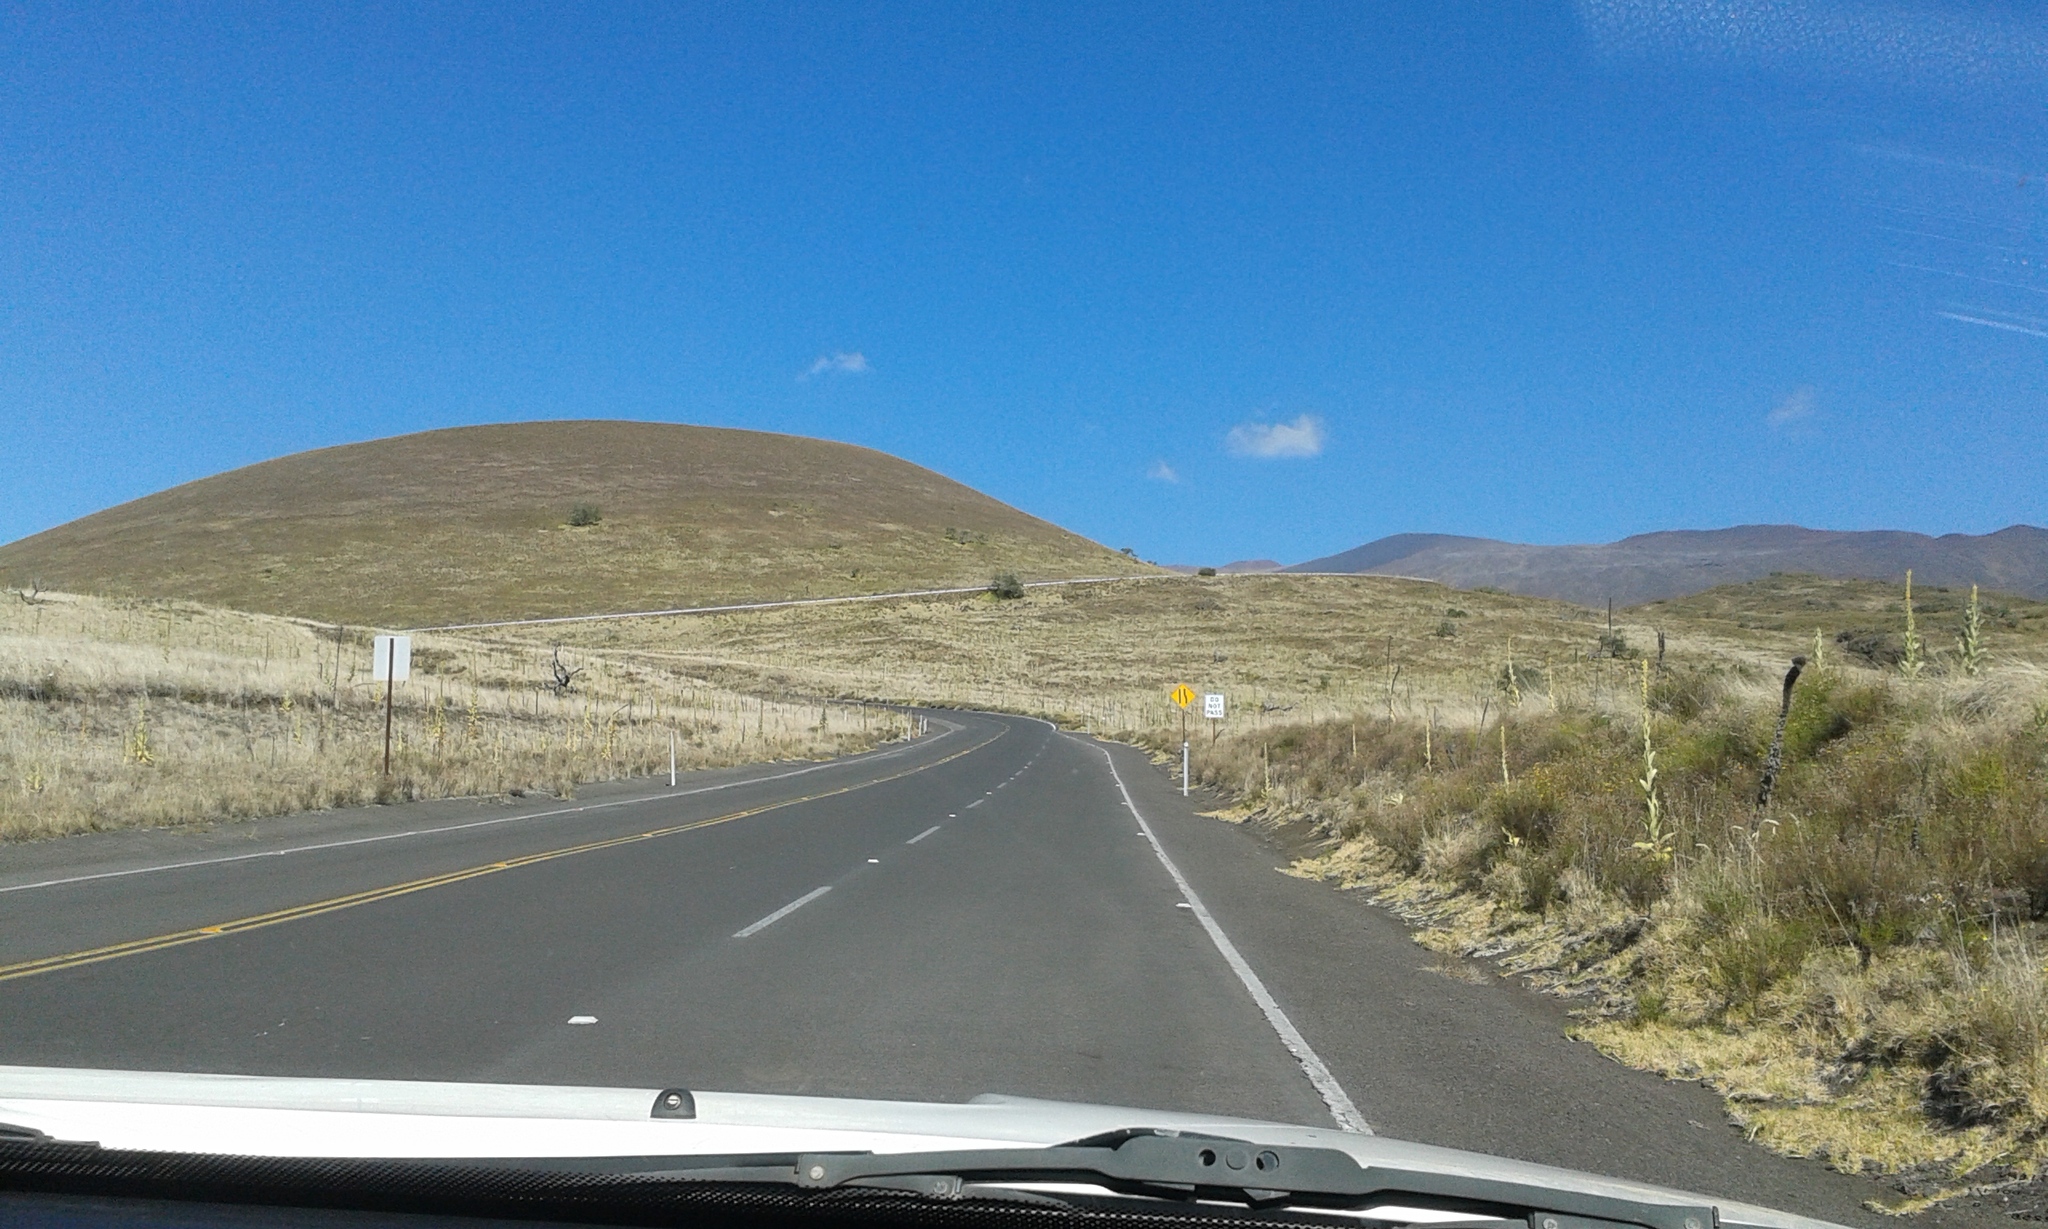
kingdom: Plantae
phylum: Tracheophyta
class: Magnoliopsida
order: Lamiales
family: Scrophulariaceae
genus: Verbascum
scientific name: Verbascum thapsus
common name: Common mullein
